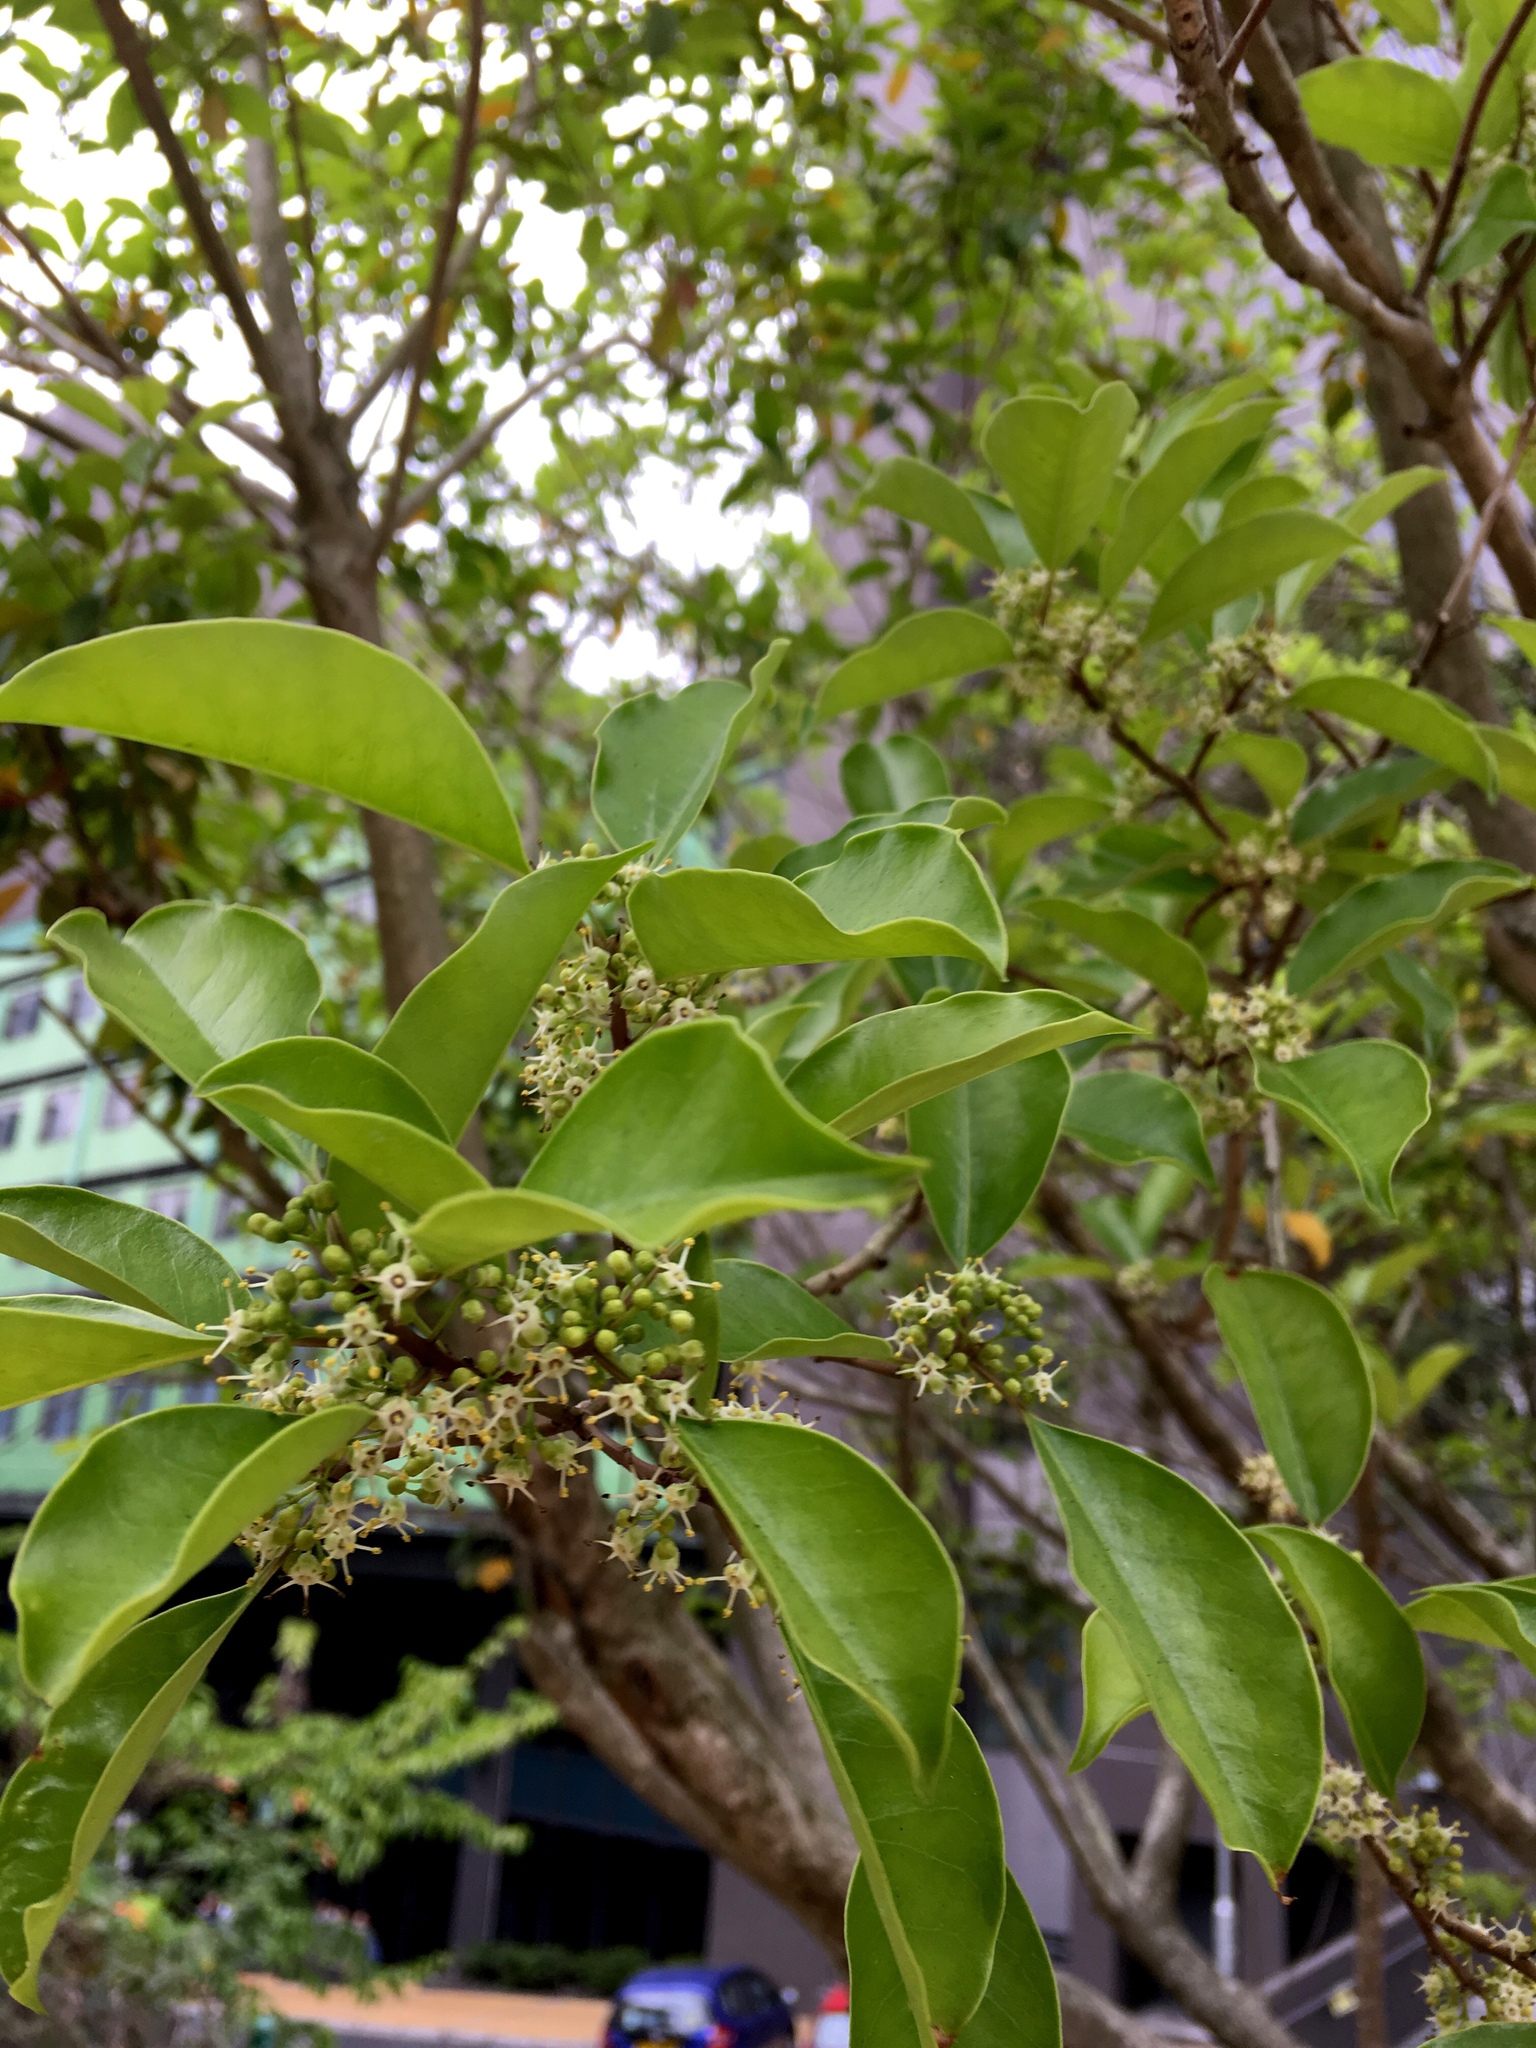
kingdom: Plantae
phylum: Tracheophyta
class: Magnoliopsida
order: Aquifoliales
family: Aquifoliaceae
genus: Ilex
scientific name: Ilex rotunda
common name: Kurogane holly
